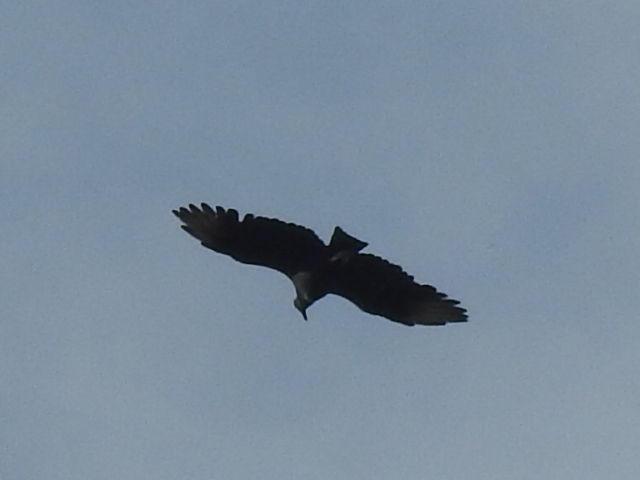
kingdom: Animalia
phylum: Chordata
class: Aves
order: Accipitriformes
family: Cathartidae
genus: Coragyps
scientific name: Coragyps atratus
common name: Black vulture
